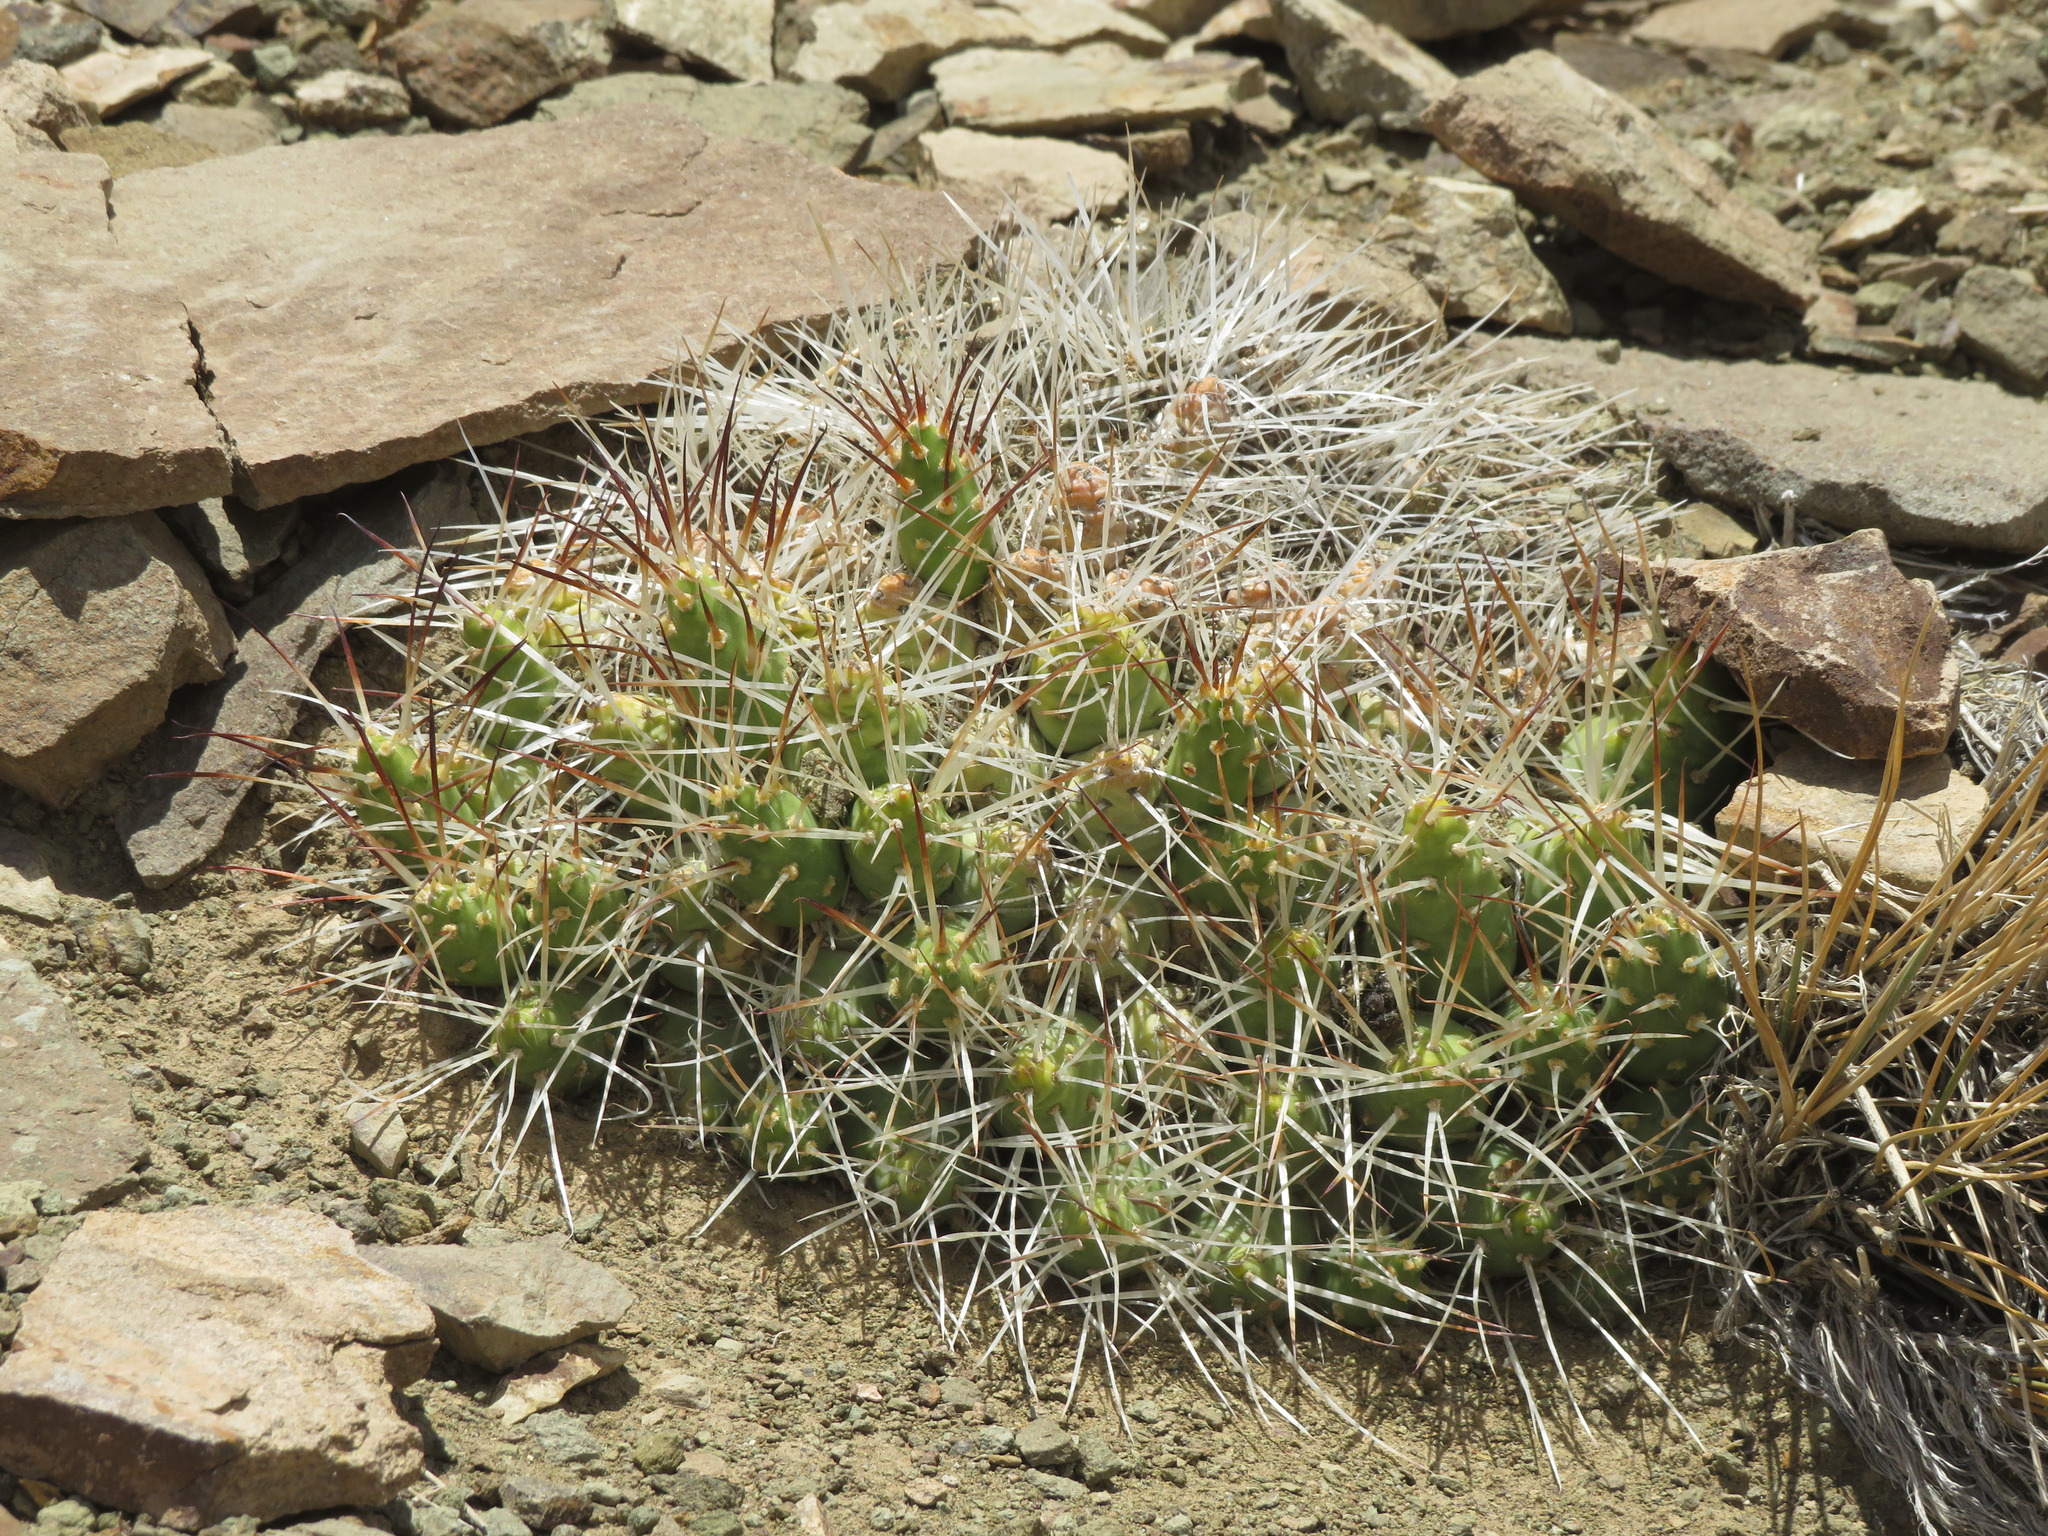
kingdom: Plantae
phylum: Tracheophyta
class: Magnoliopsida
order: Caryophyllales
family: Cactaceae
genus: Maihueniopsis
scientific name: Maihueniopsis glomerata
